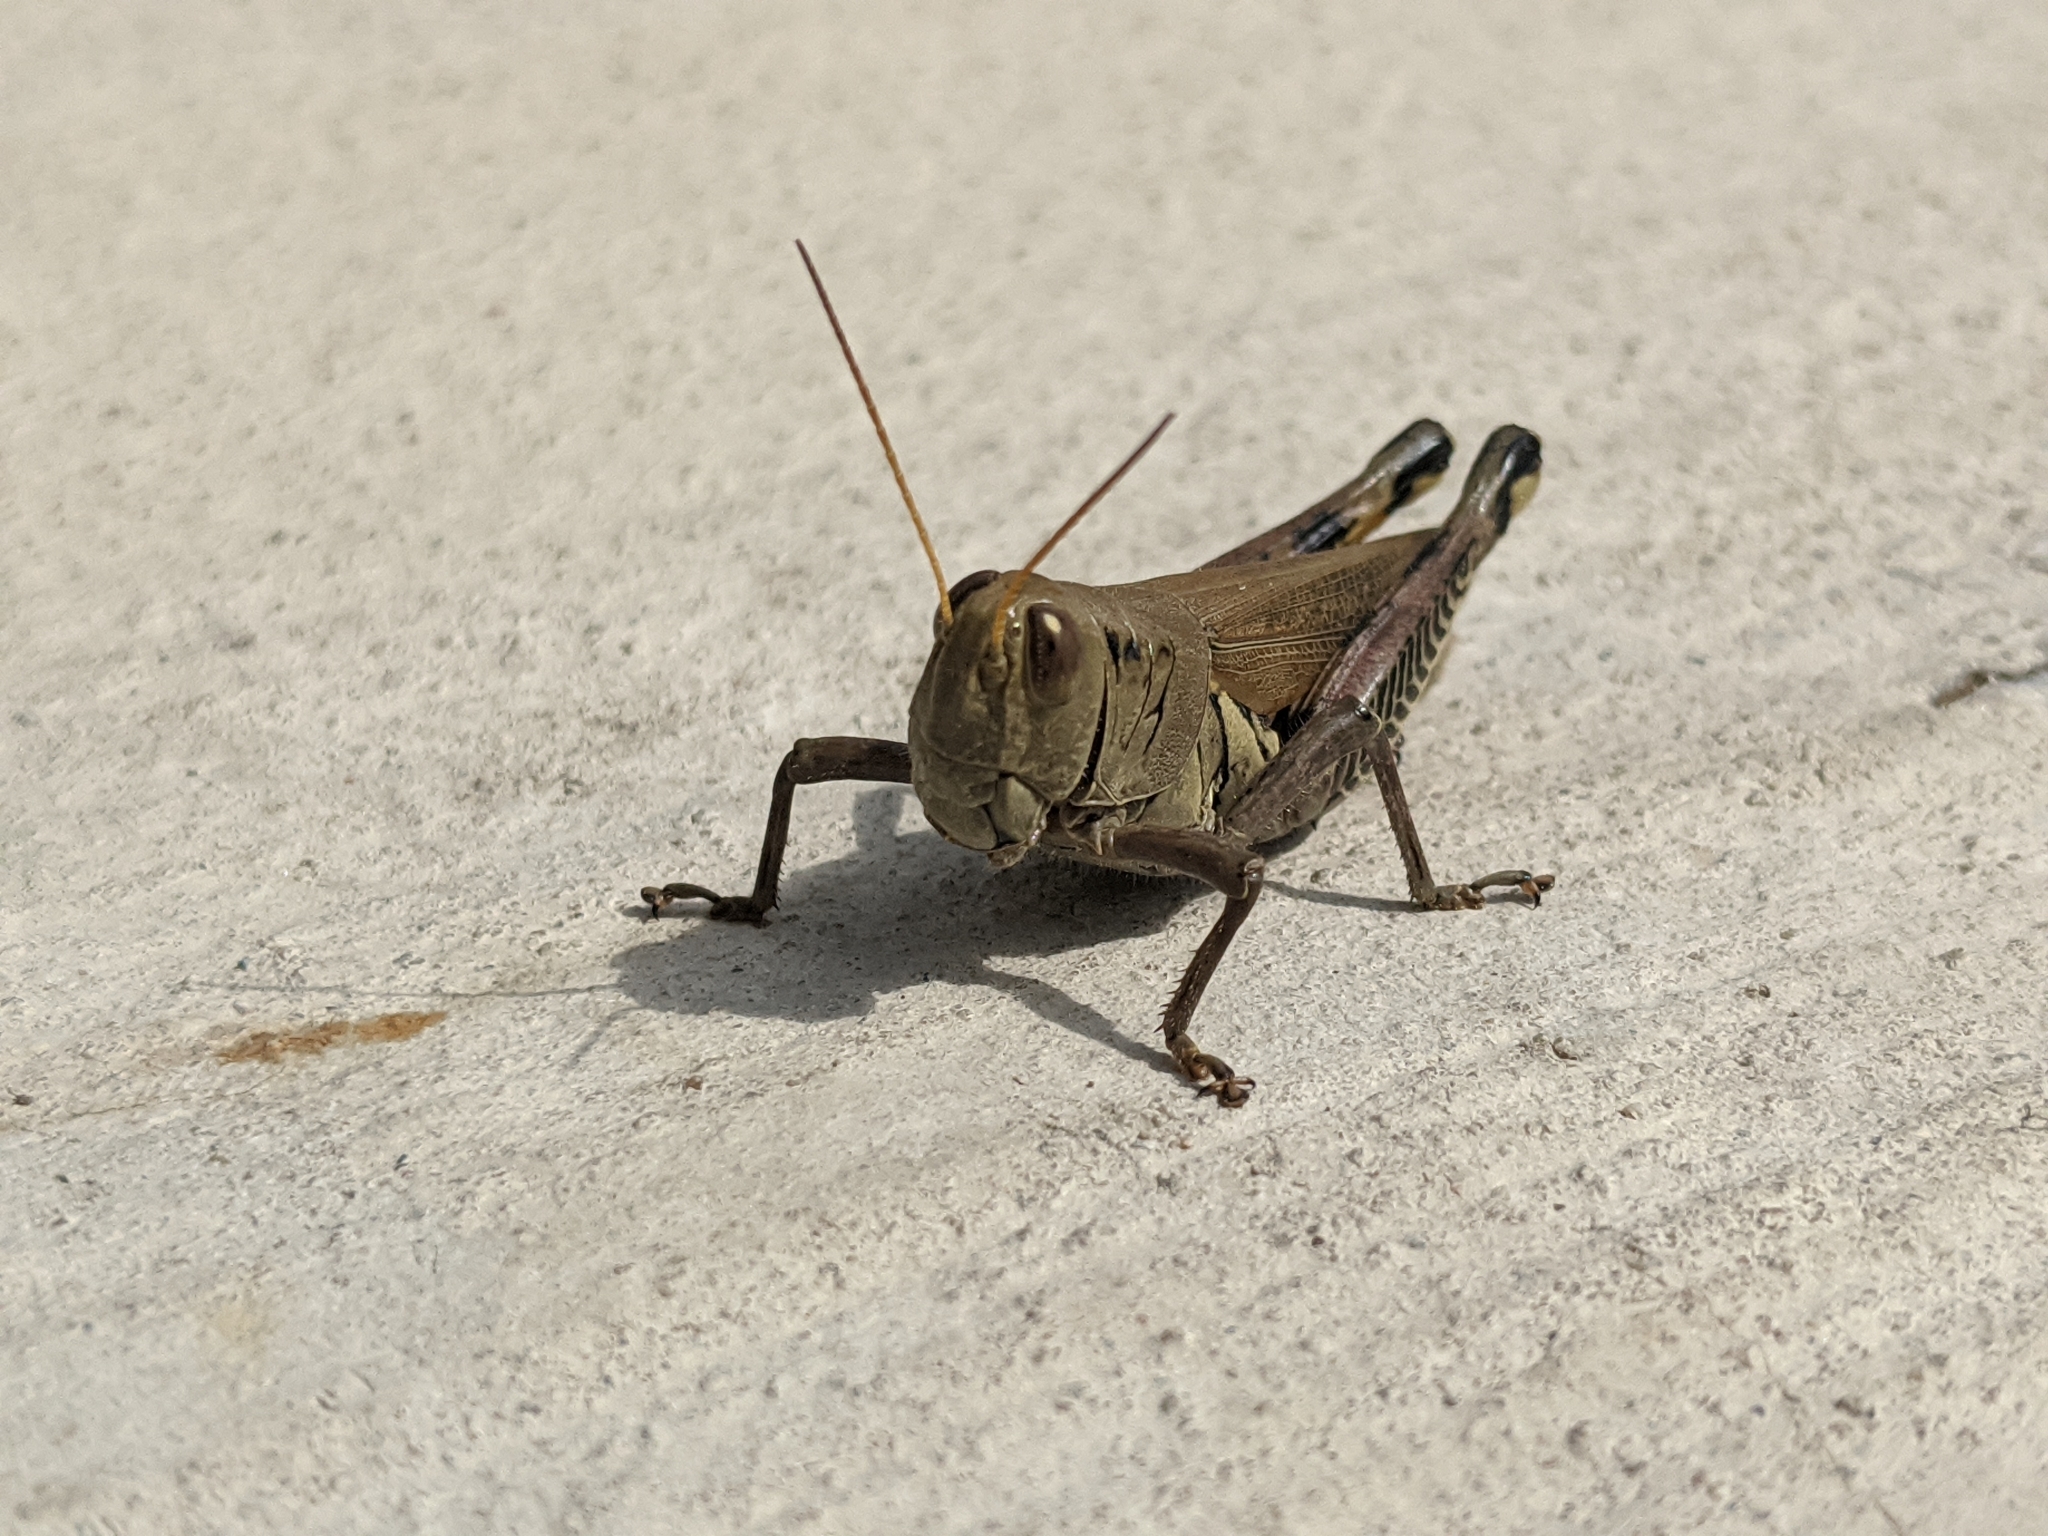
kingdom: Animalia
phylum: Arthropoda
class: Insecta
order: Orthoptera
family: Acrididae
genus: Melanoplus
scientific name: Melanoplus differentialis
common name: Differential grasshopper
